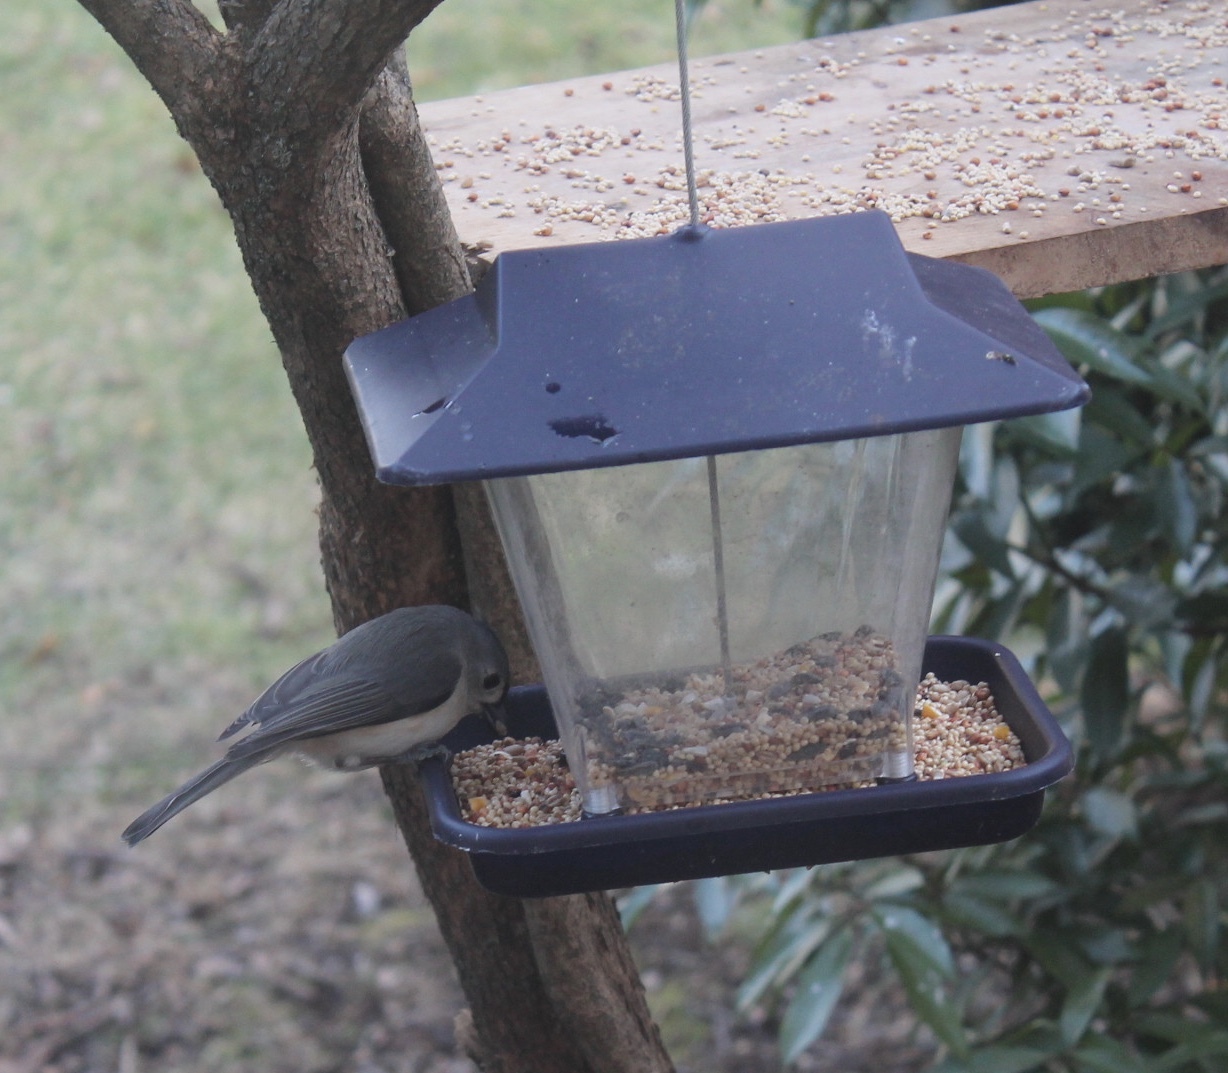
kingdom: Animalia
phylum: Chordata
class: Aves
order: Passeriformes
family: Paridae
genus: Baeolophus
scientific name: Baeolophus bicolor
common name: Tufted titmouse
